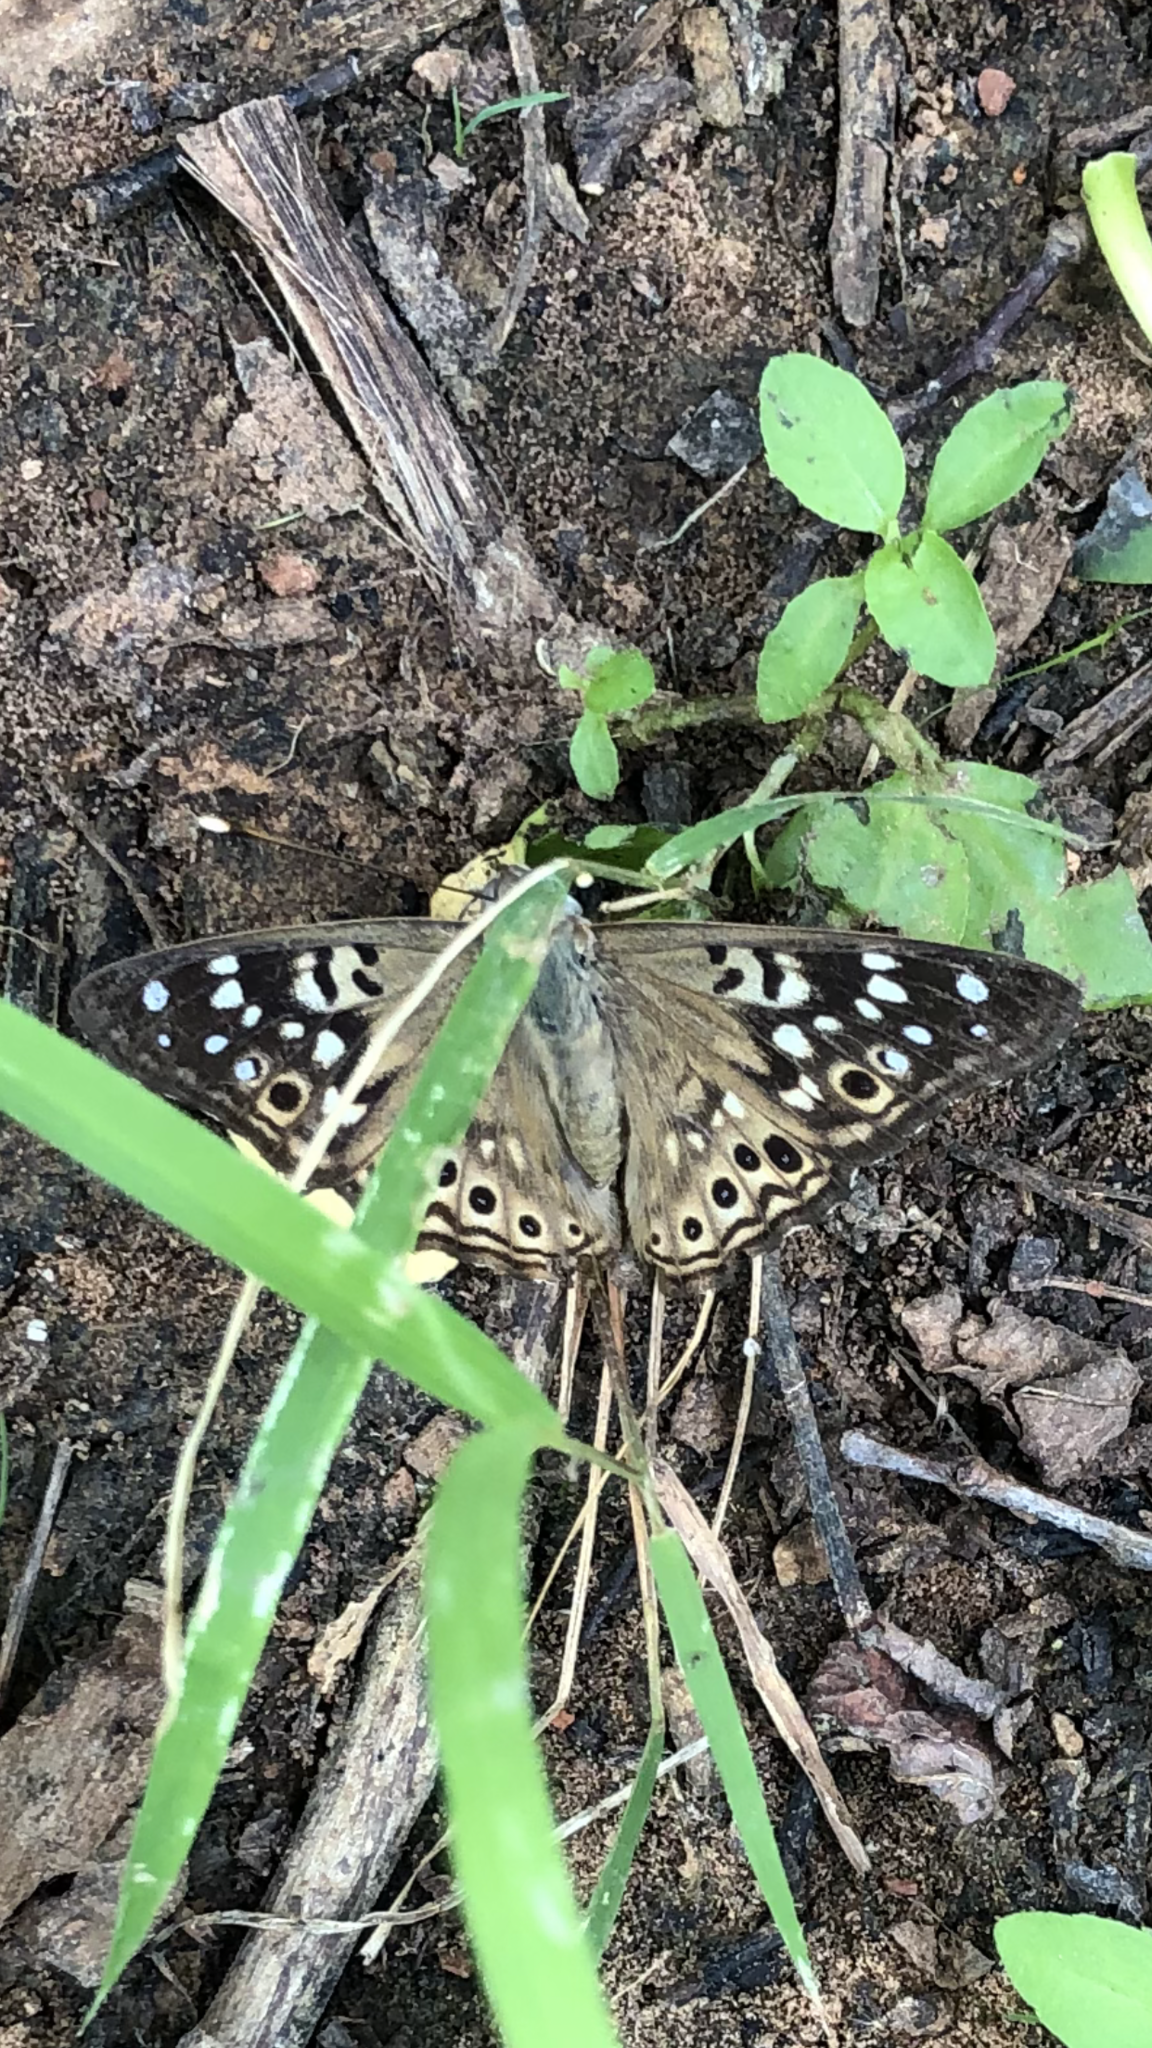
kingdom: Animalia
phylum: Arthropoda
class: Insecta
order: Lepidoptera
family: Nymphalidae
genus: Asterocampa
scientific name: Asterocampa celtis
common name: Hackberry emperor
